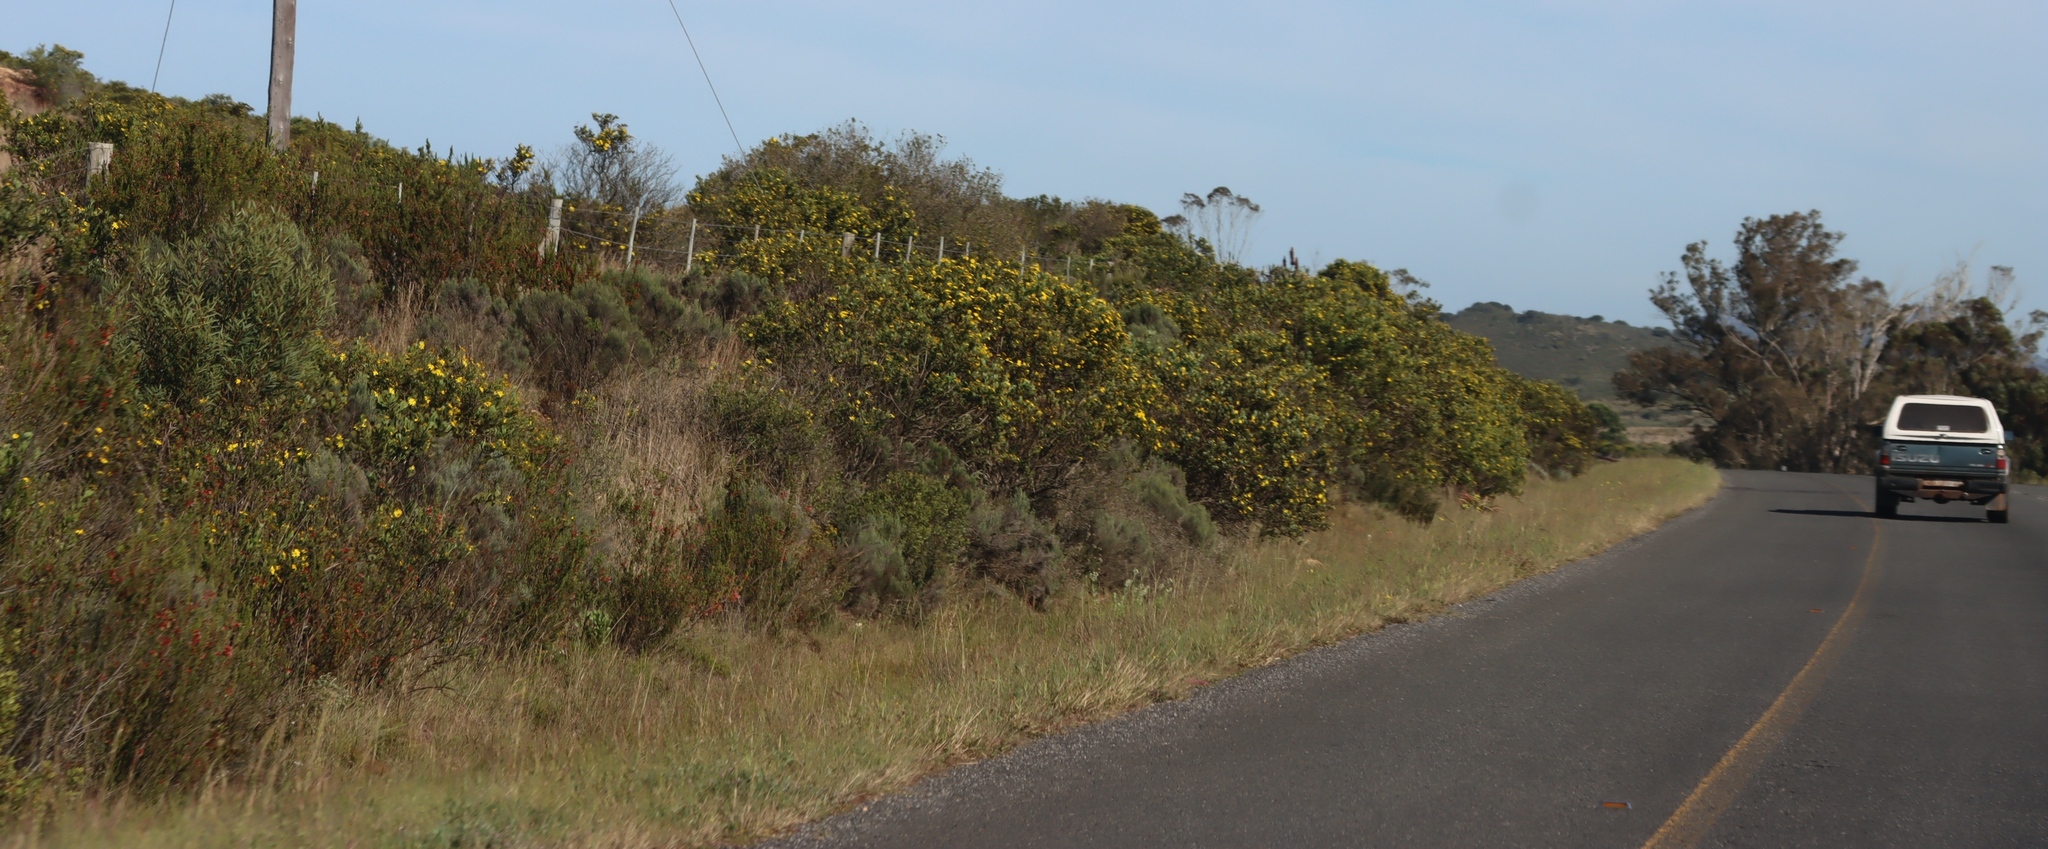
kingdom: Plantae
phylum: Tracheophyta
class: Magnoliopsida
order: Asterales
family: Asteraceae
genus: Osteospermum
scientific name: Osteospermum moniliferum
